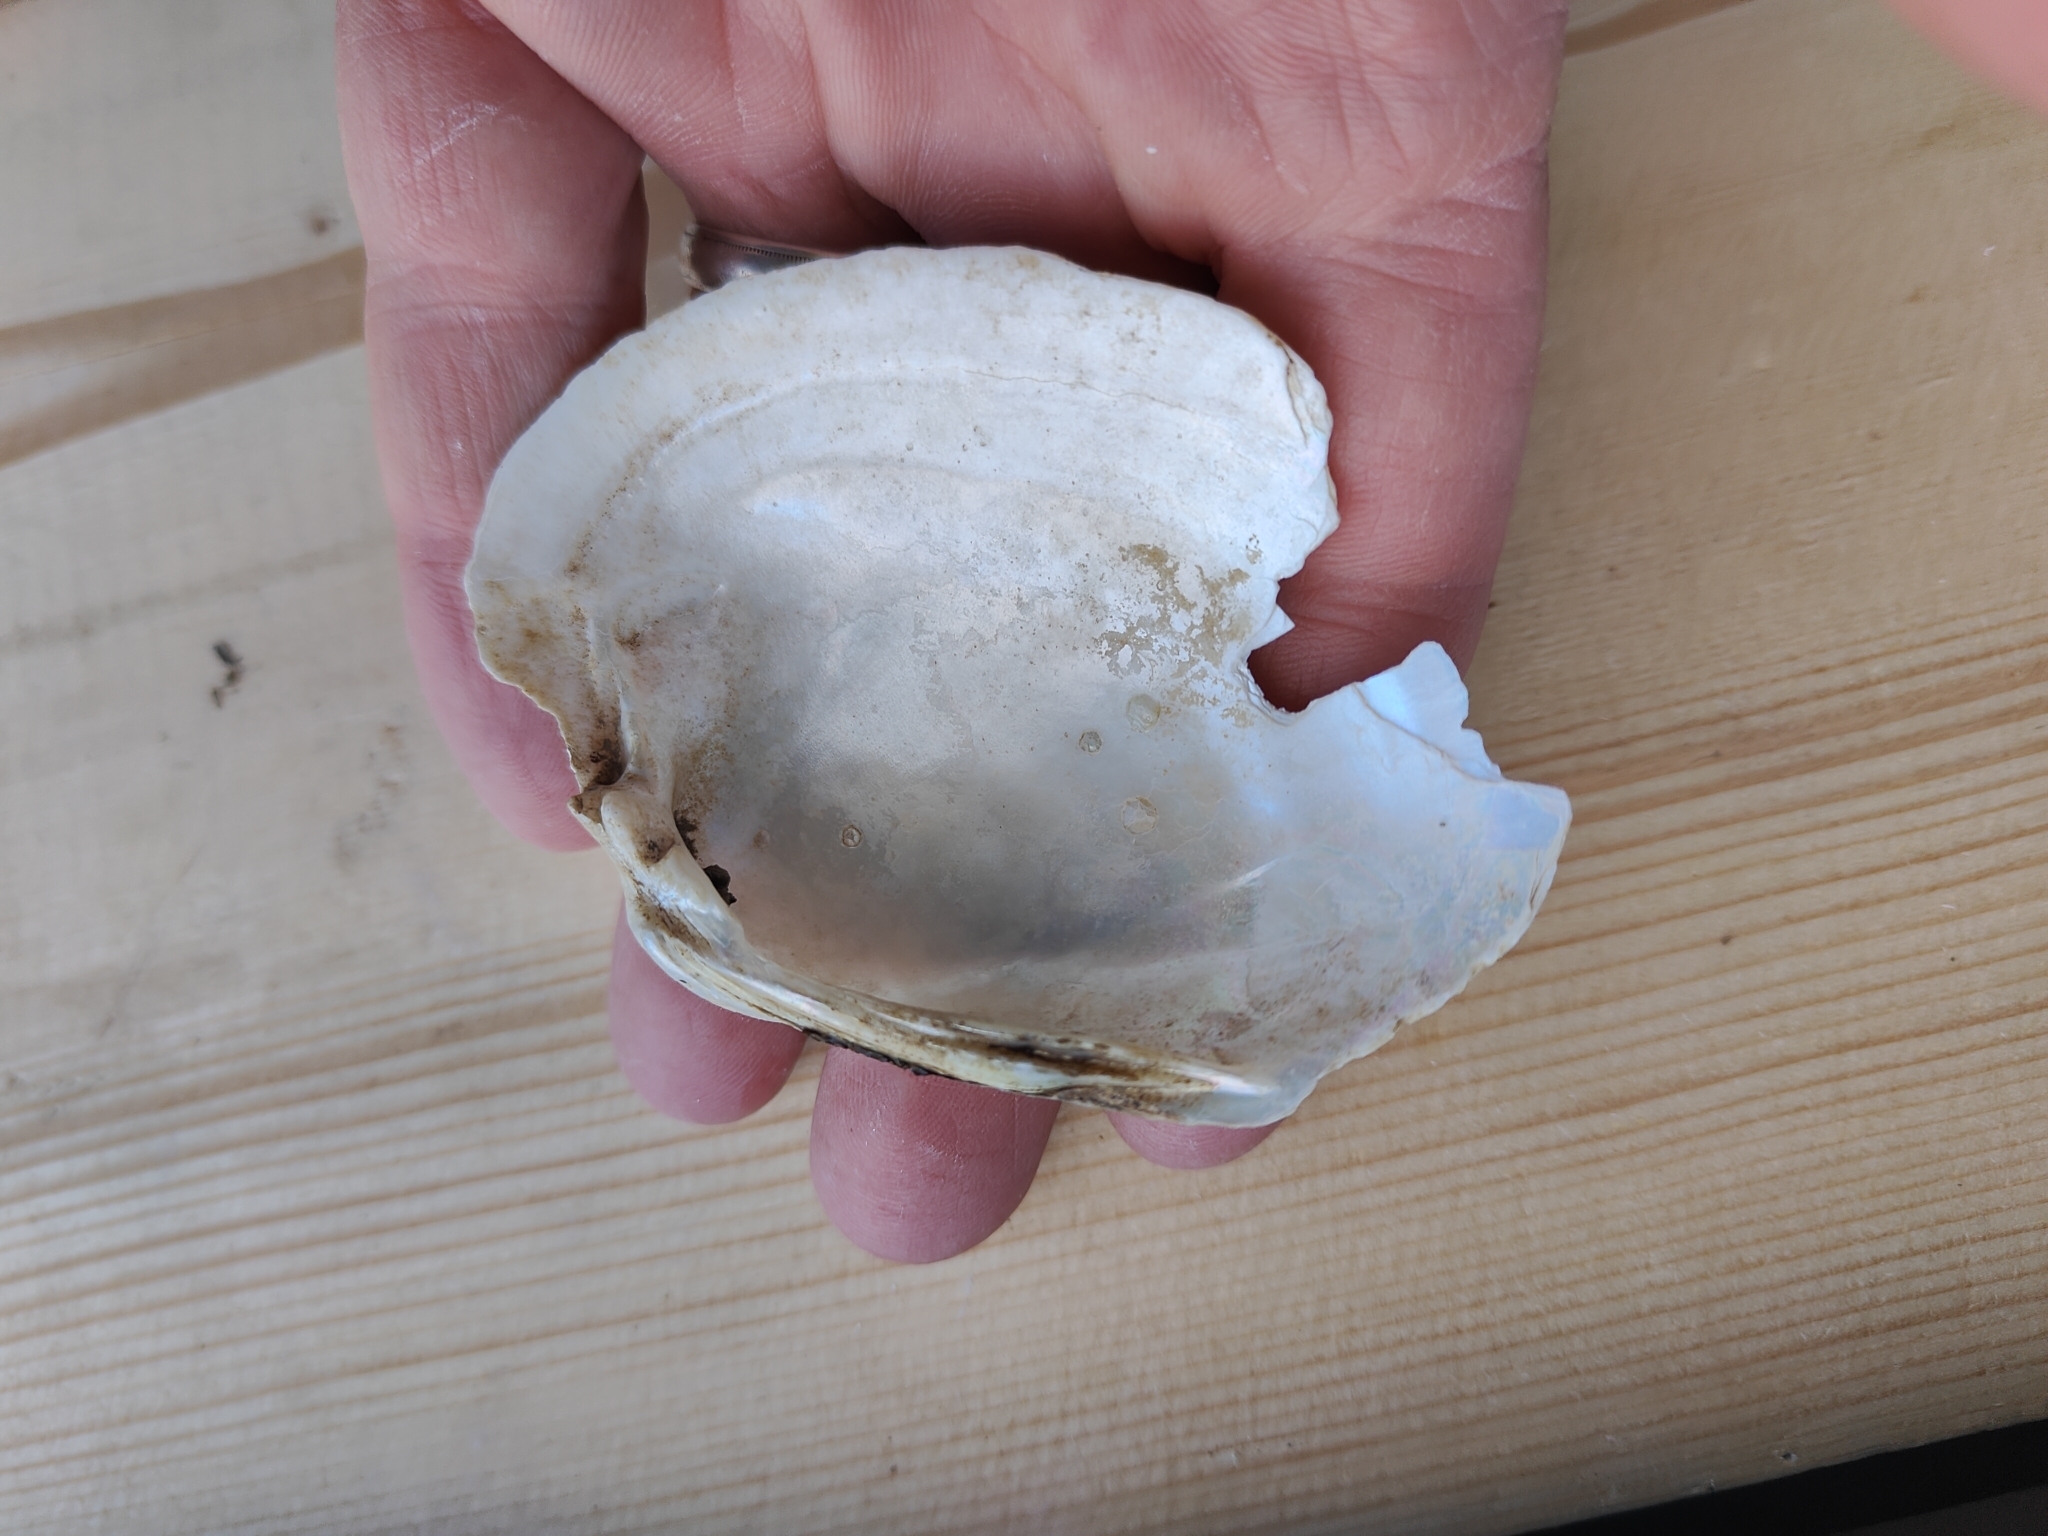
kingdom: Animalia
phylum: Mollusca
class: Bivalvia
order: Unionida
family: Unionidae
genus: Lampsilis
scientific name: Lampsilis cardium
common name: Plain pocketbook
